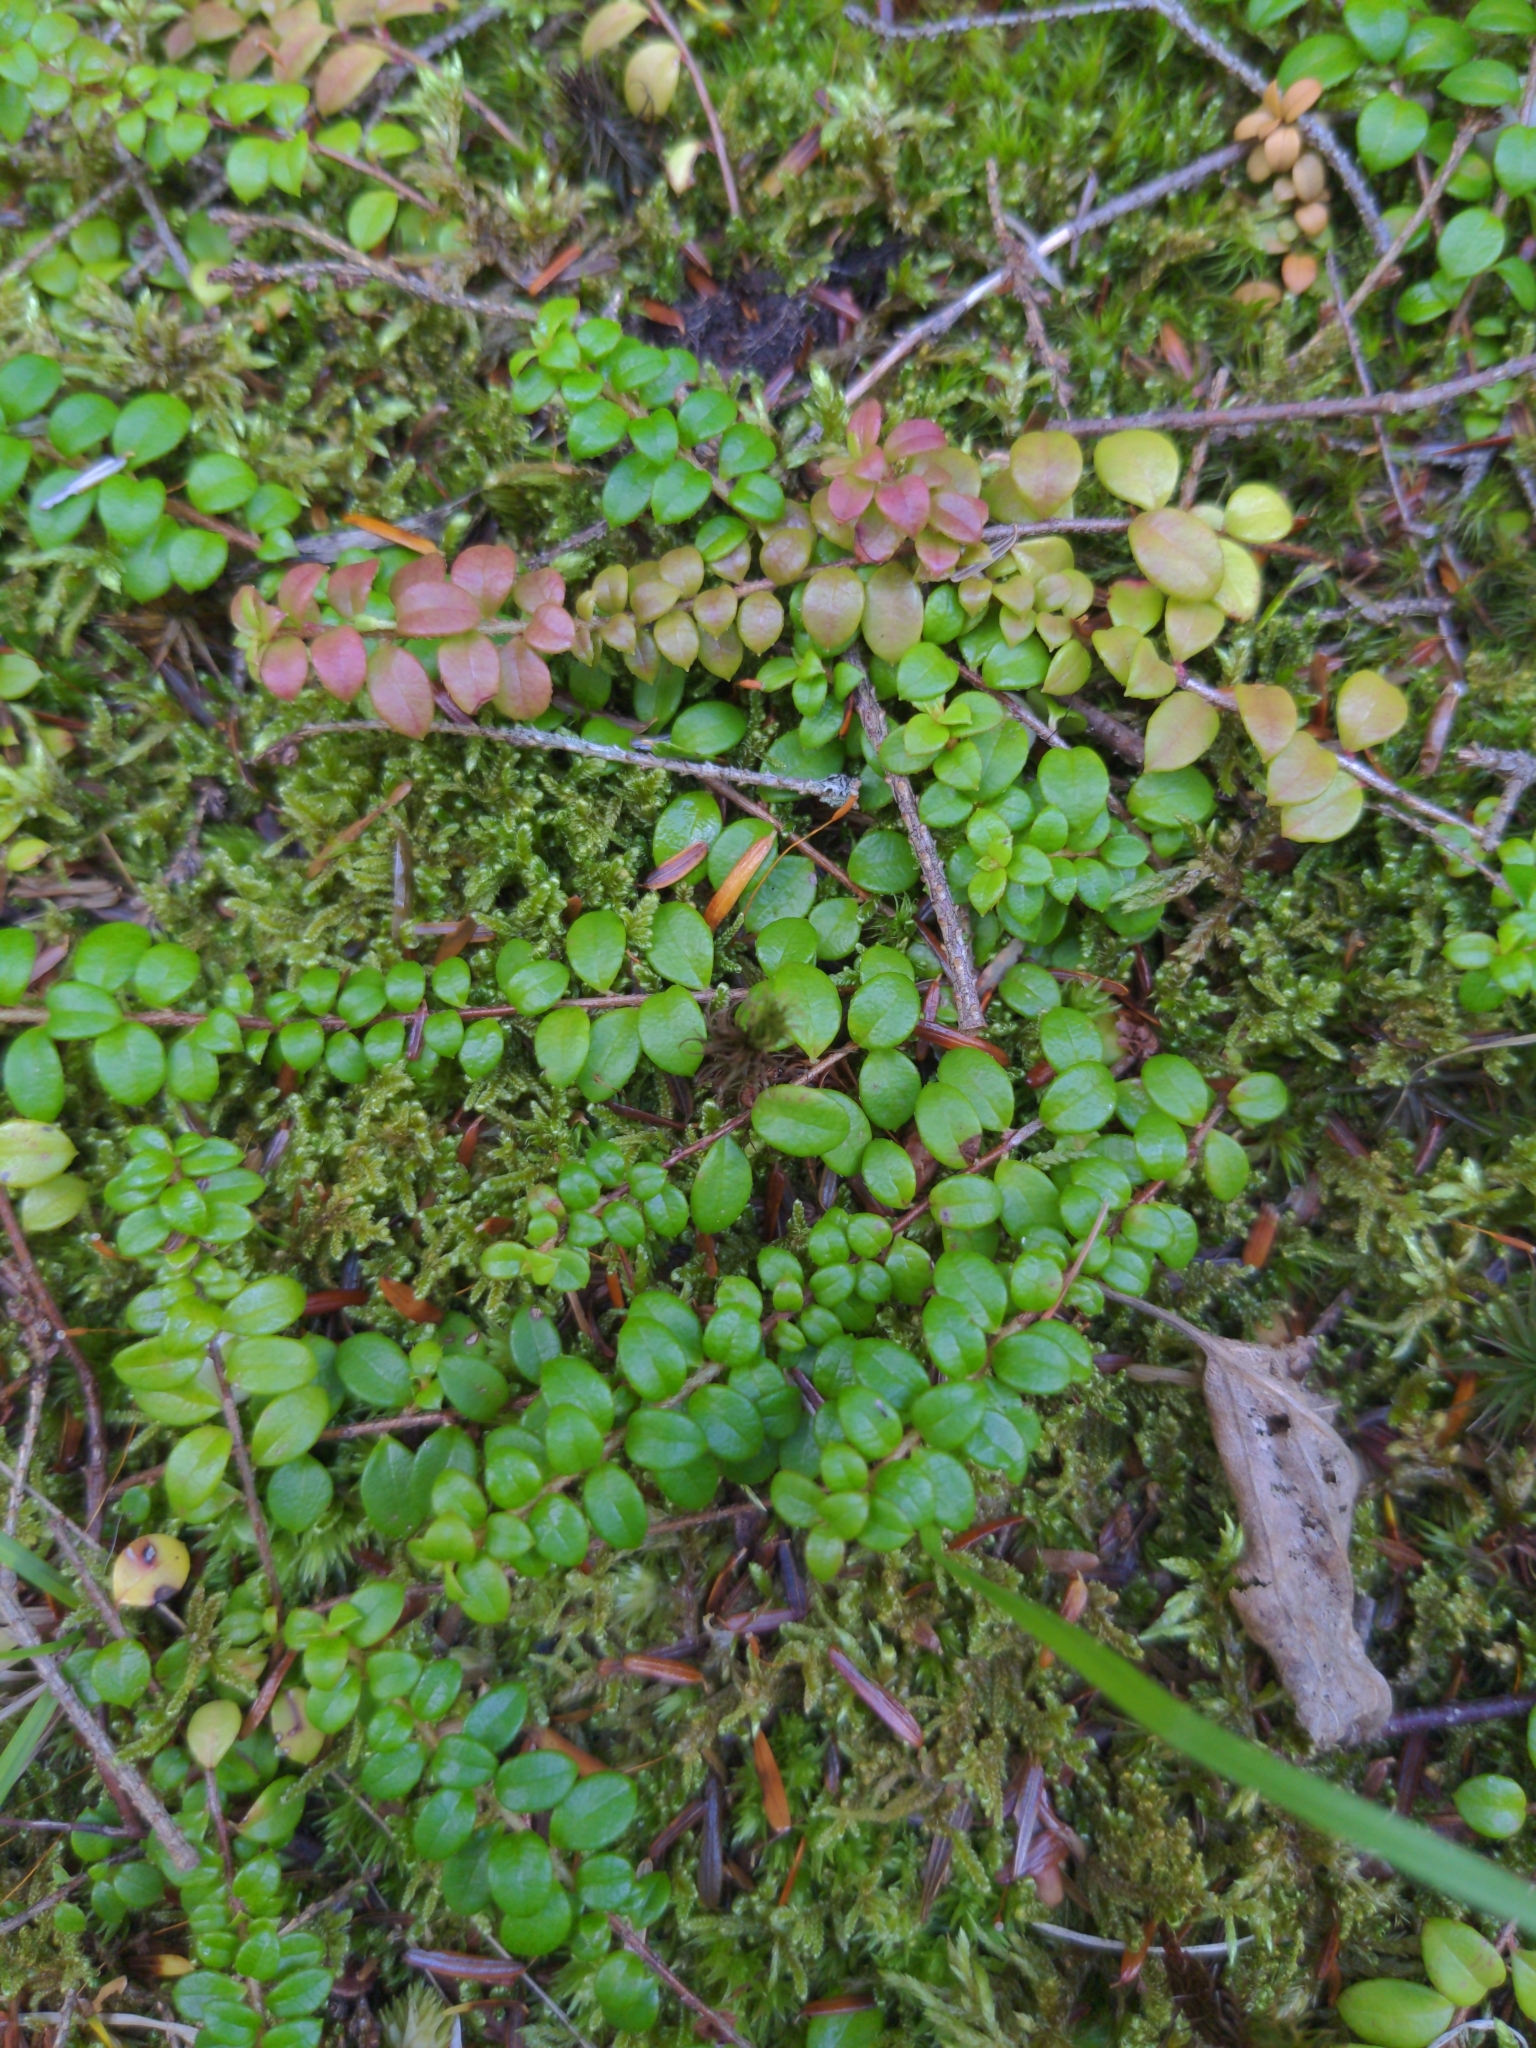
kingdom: Plantae
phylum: Tracheophyta
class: Magnoliopsida
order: Ericales
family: Ericaceae
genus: Gaultheria
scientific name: Gaultheria hispidula
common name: Cancer wintergreen
